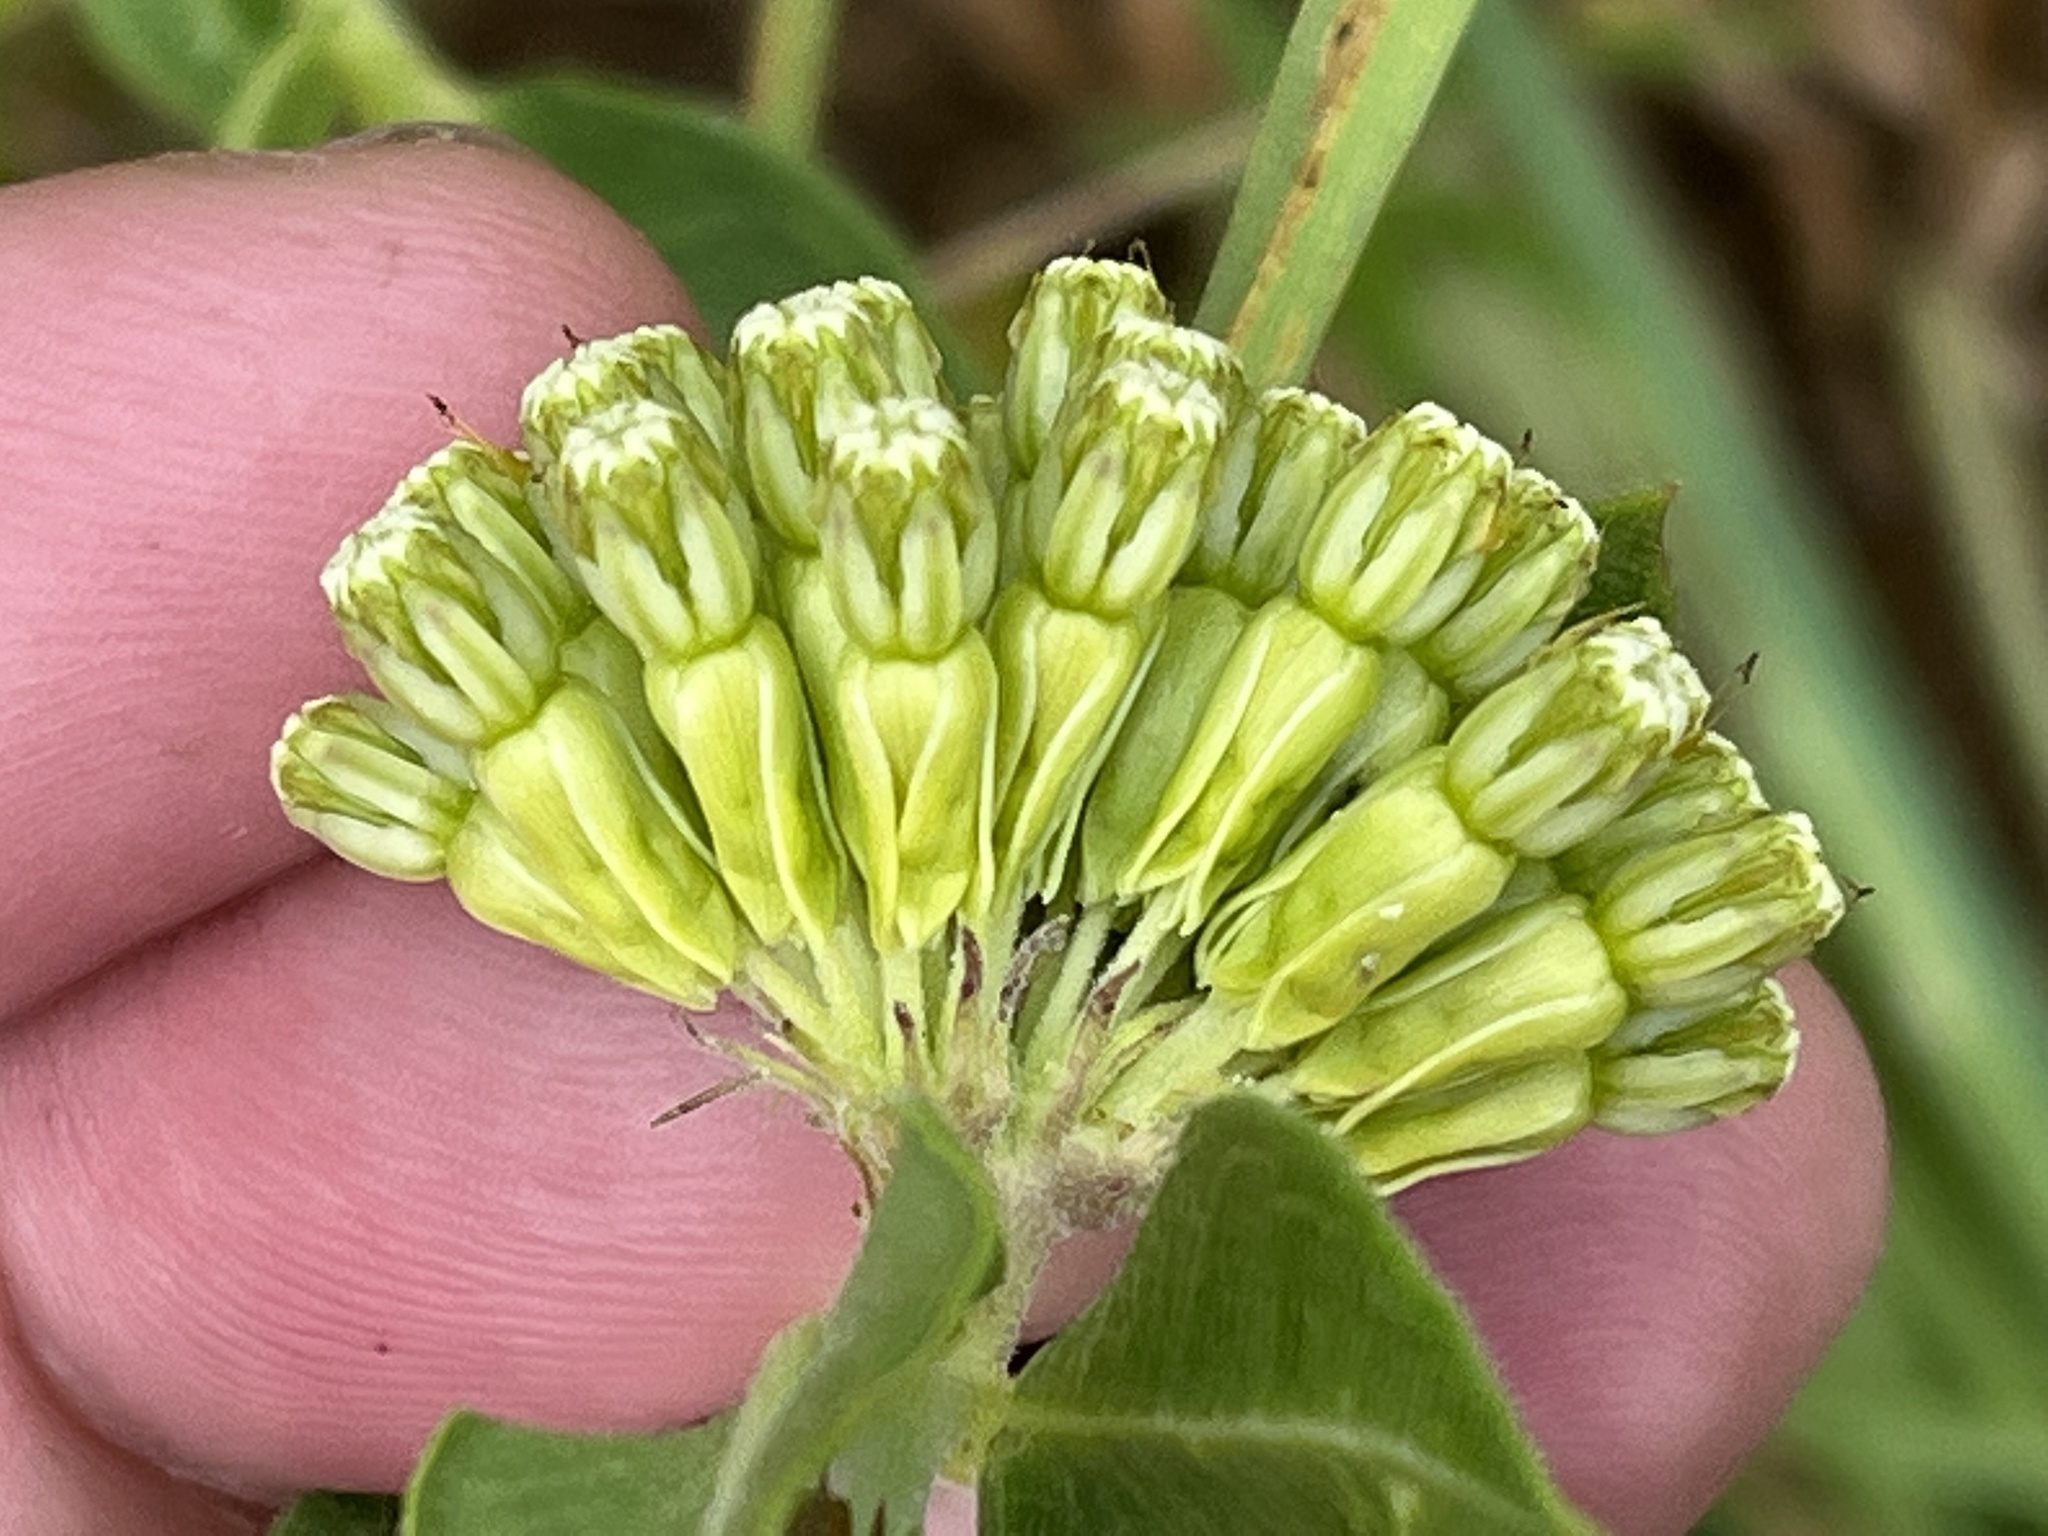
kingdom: Plantae
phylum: Tracheophyta
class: Magnoliopsida
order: Gentianales
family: Apocynaceae
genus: Asclepias
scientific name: Asclepias viridiflora
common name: Green comet milkweed
